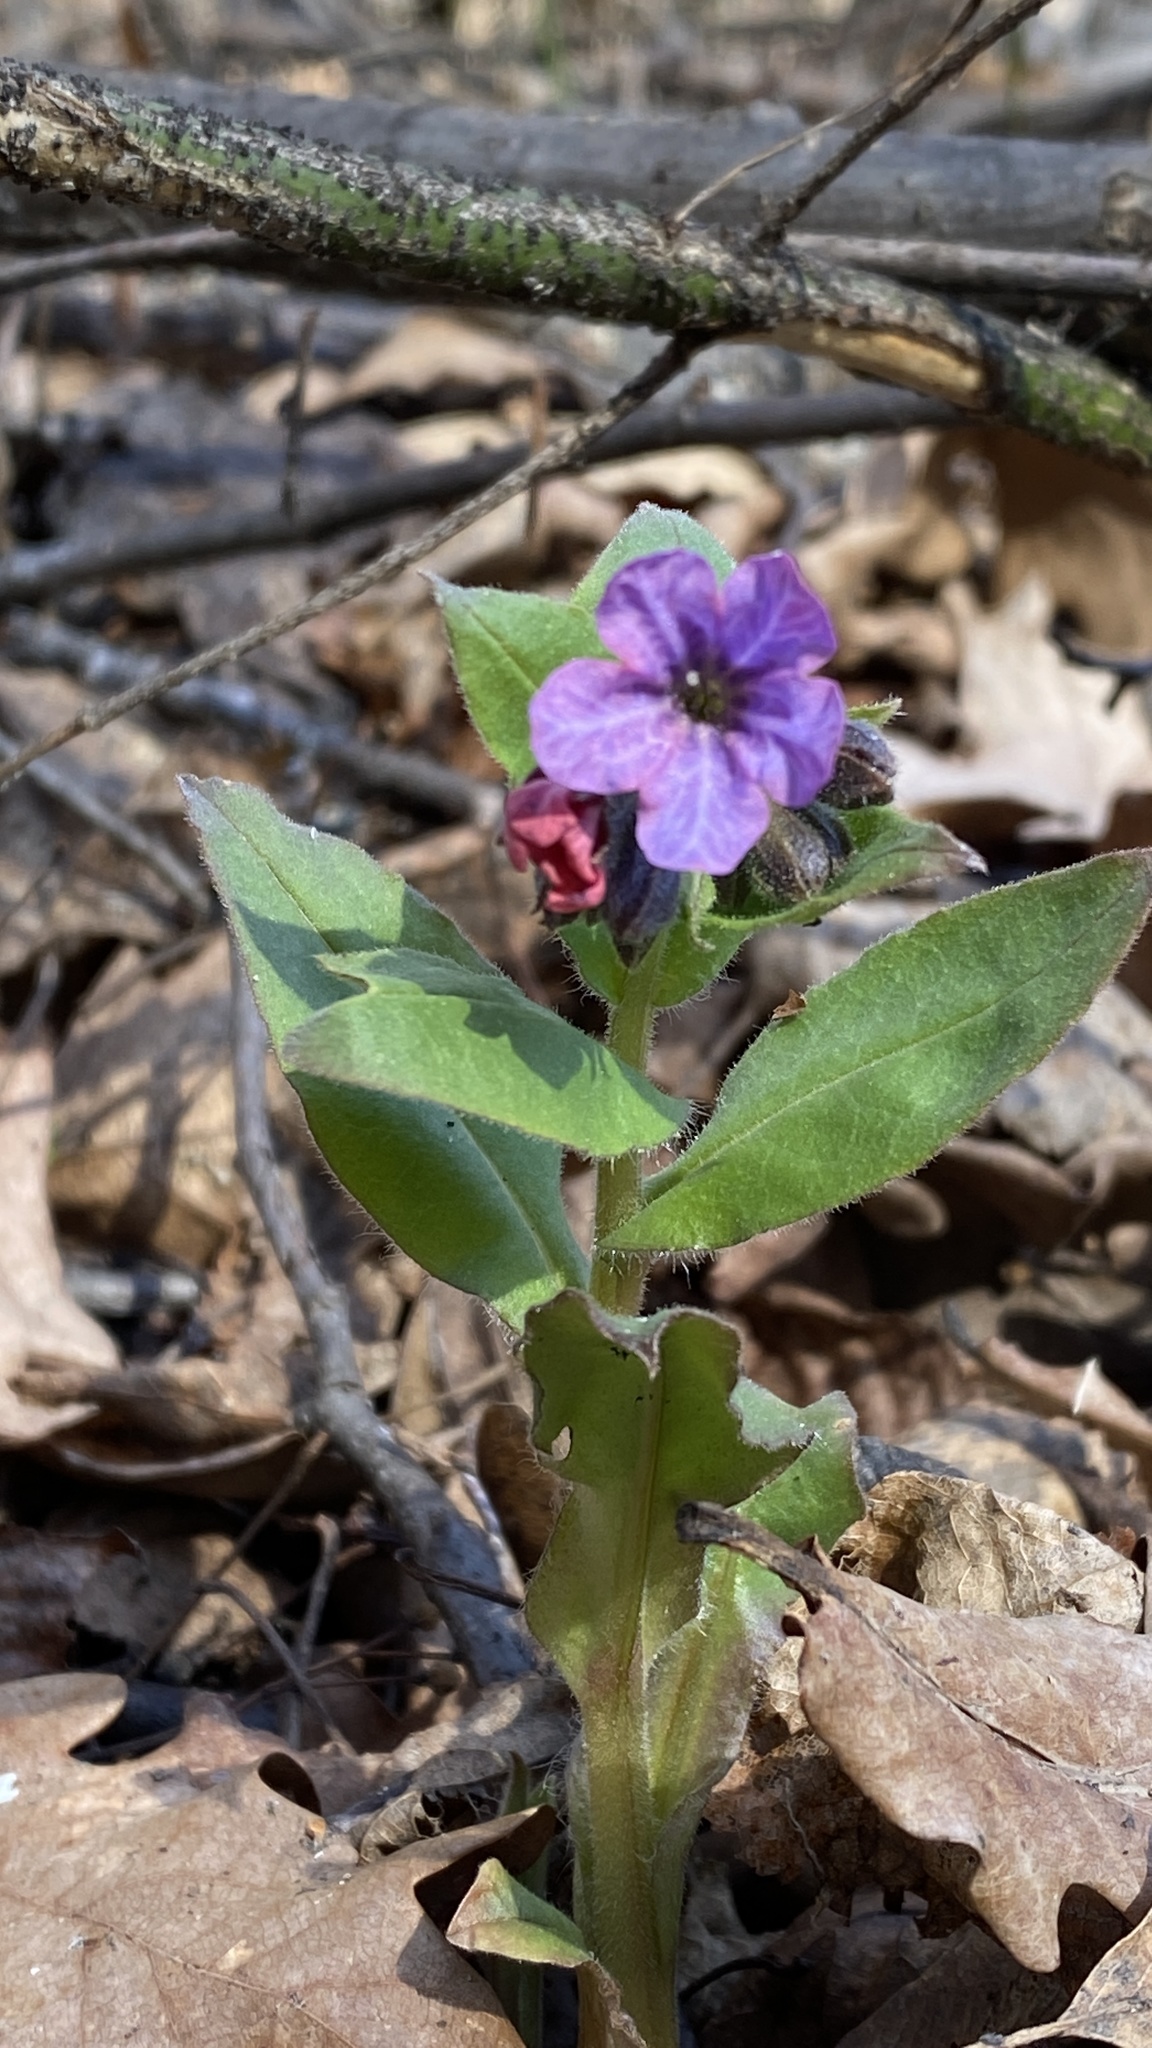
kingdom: Plantae
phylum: Tracheophyta
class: Magnoliopsida
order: Boraginales
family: Boraginaceae
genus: Pulmonaria
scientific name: Pulmonaria obscura
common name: Suffolk lungwort
